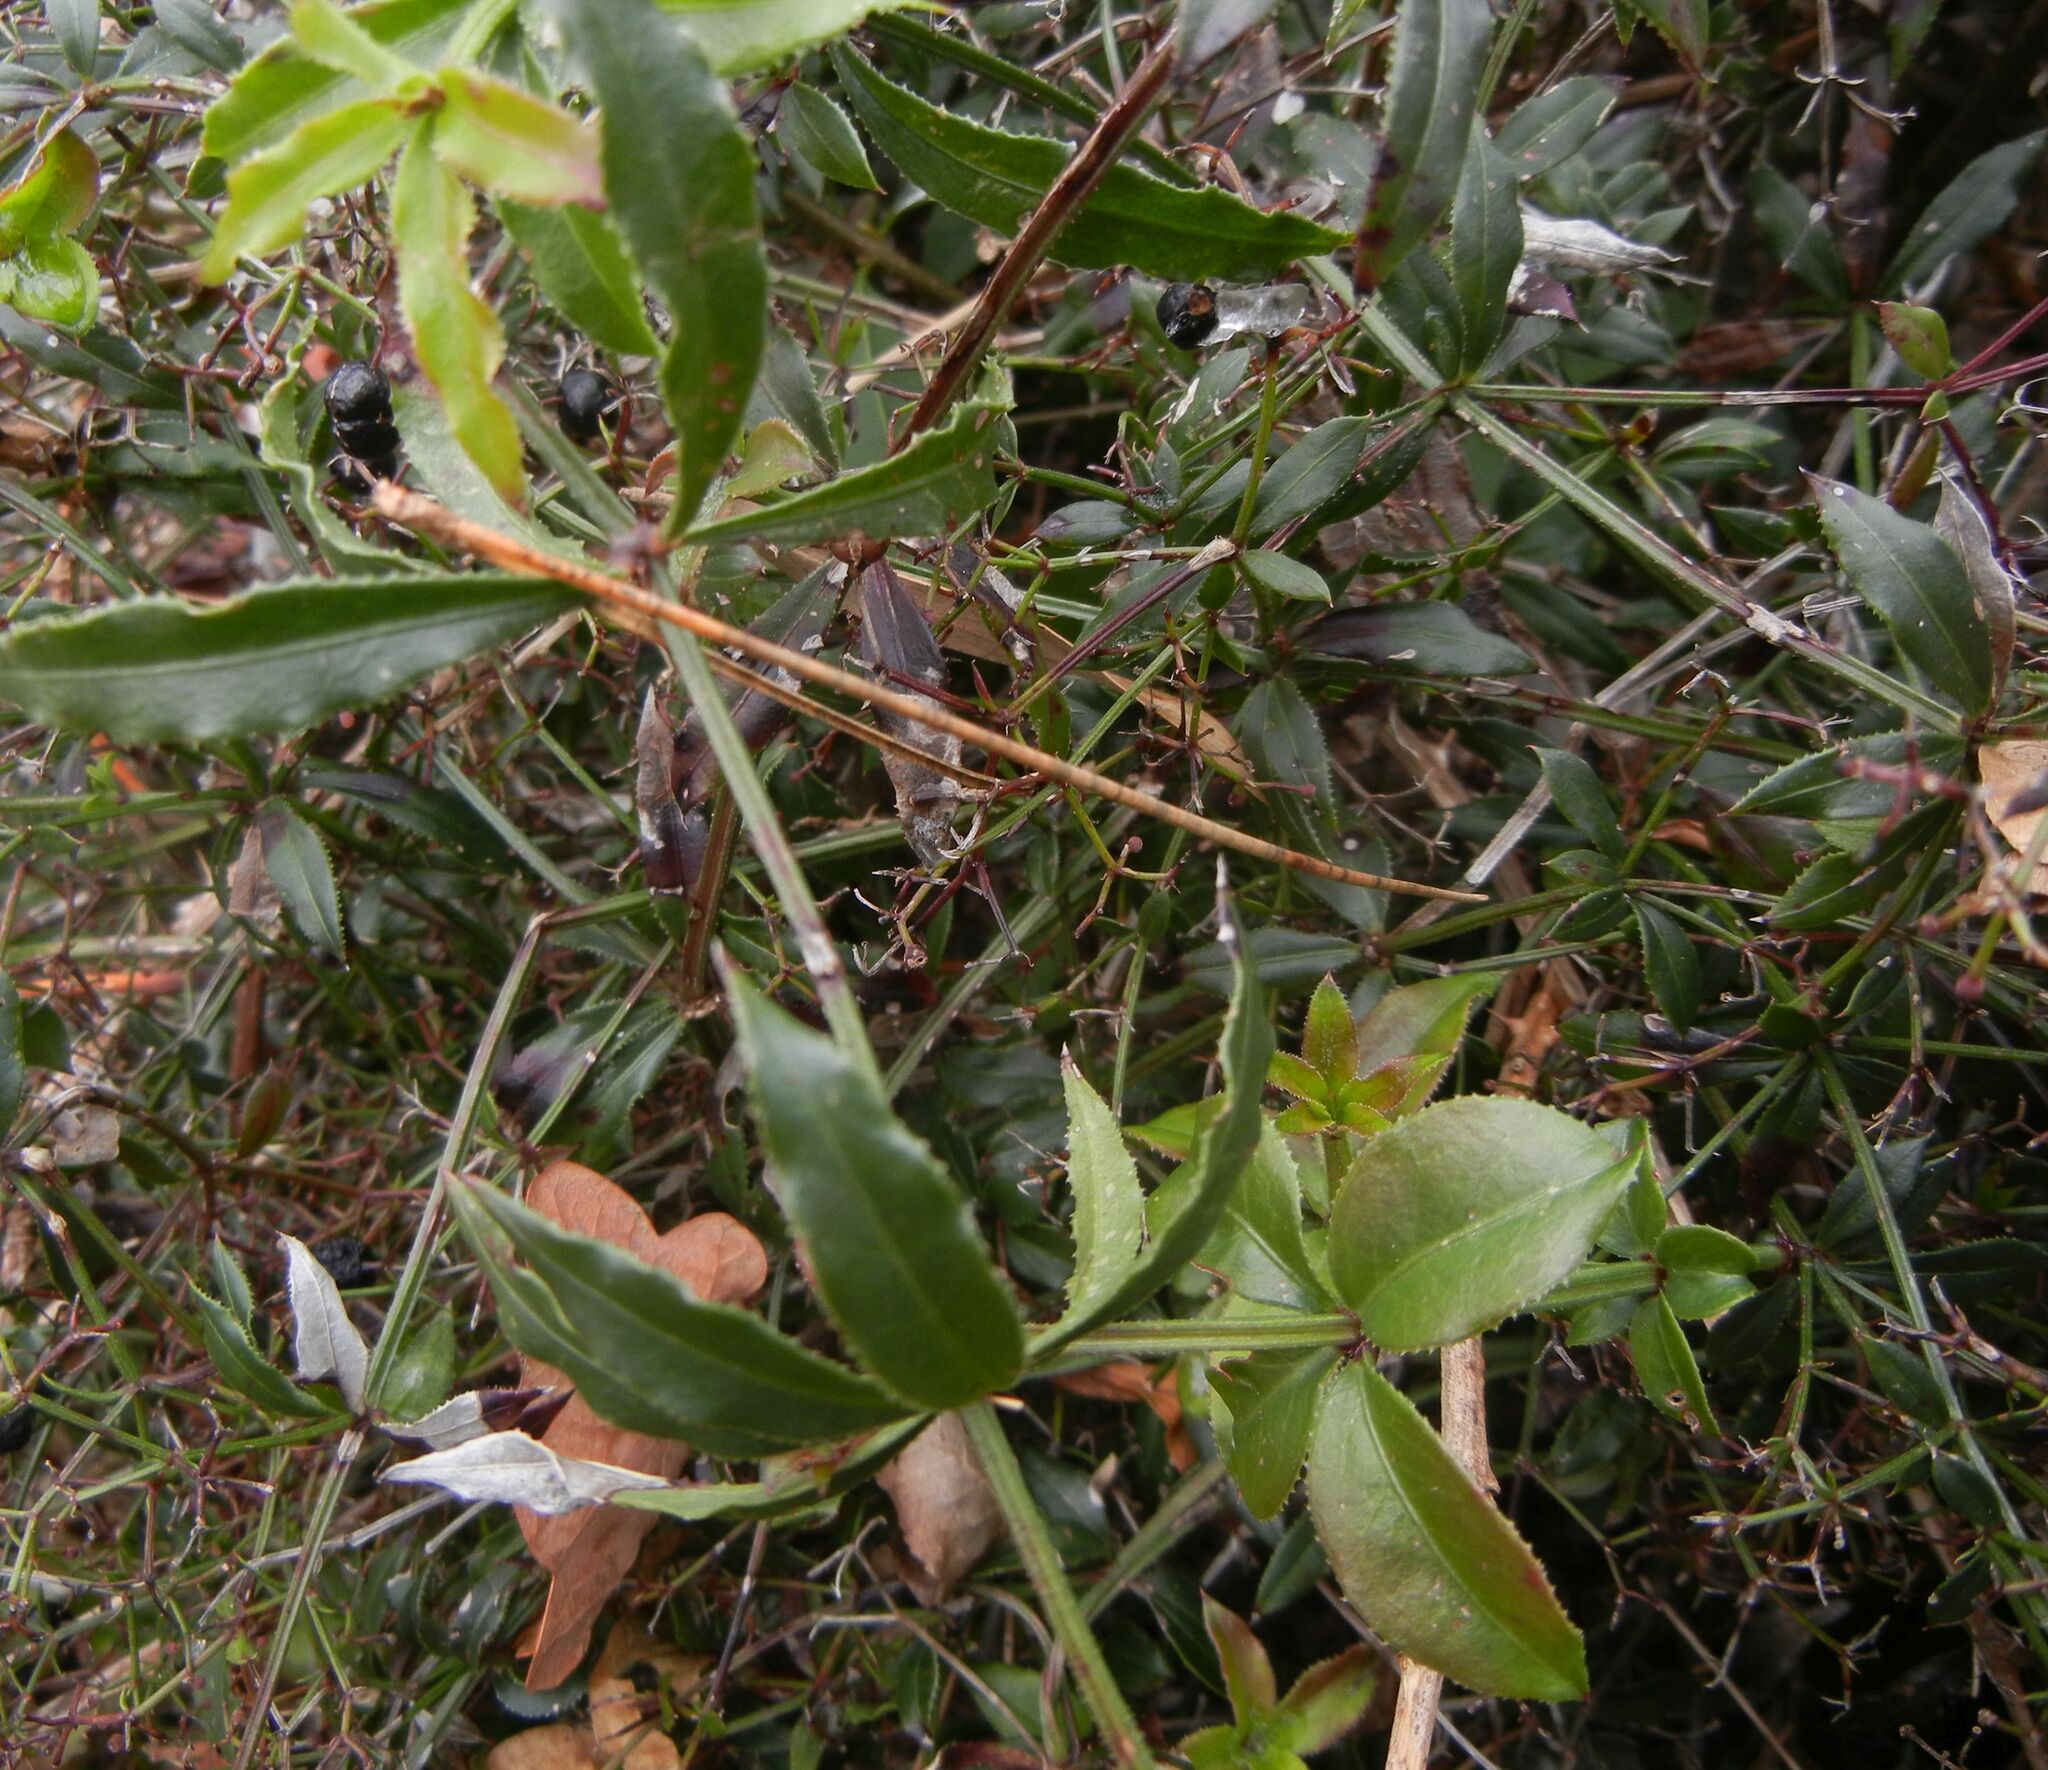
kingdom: Plantae
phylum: Tracheophyta
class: Magnoliopsida
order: Gentianales
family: Rubiaceae
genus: Rubia
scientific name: Rubia peregrina
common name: Wild madder
